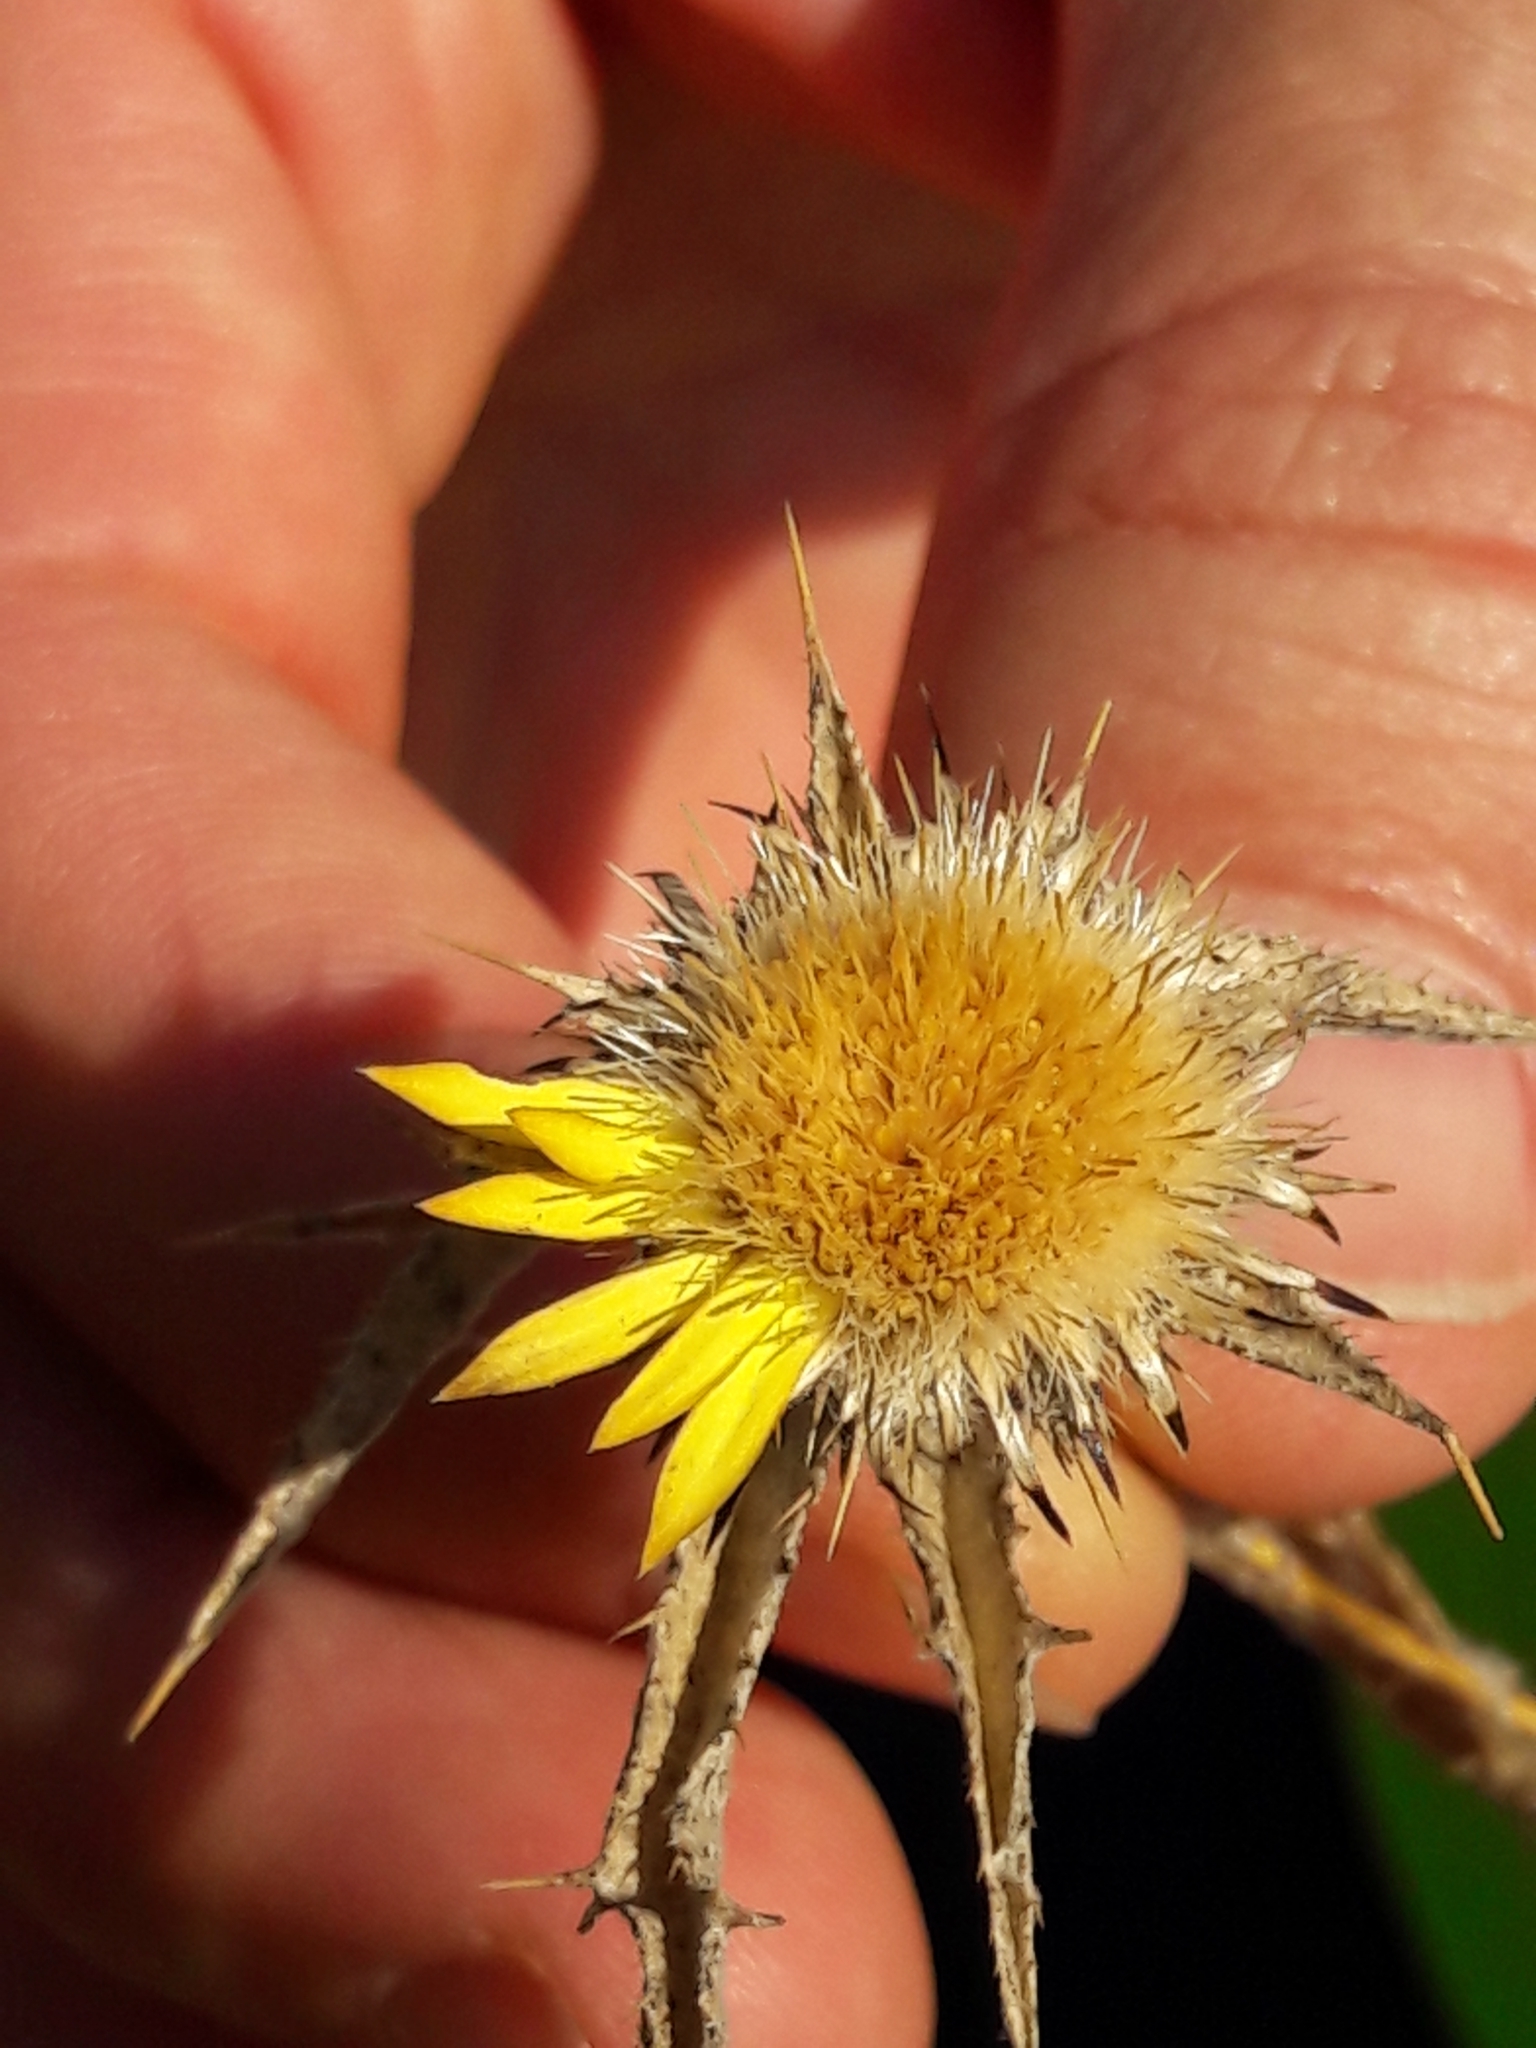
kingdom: Plantae
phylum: Tracheophyta
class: Magnoliopsida
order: Asterales
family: Asteraceae
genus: Carlina
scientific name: Carlina racemosa
